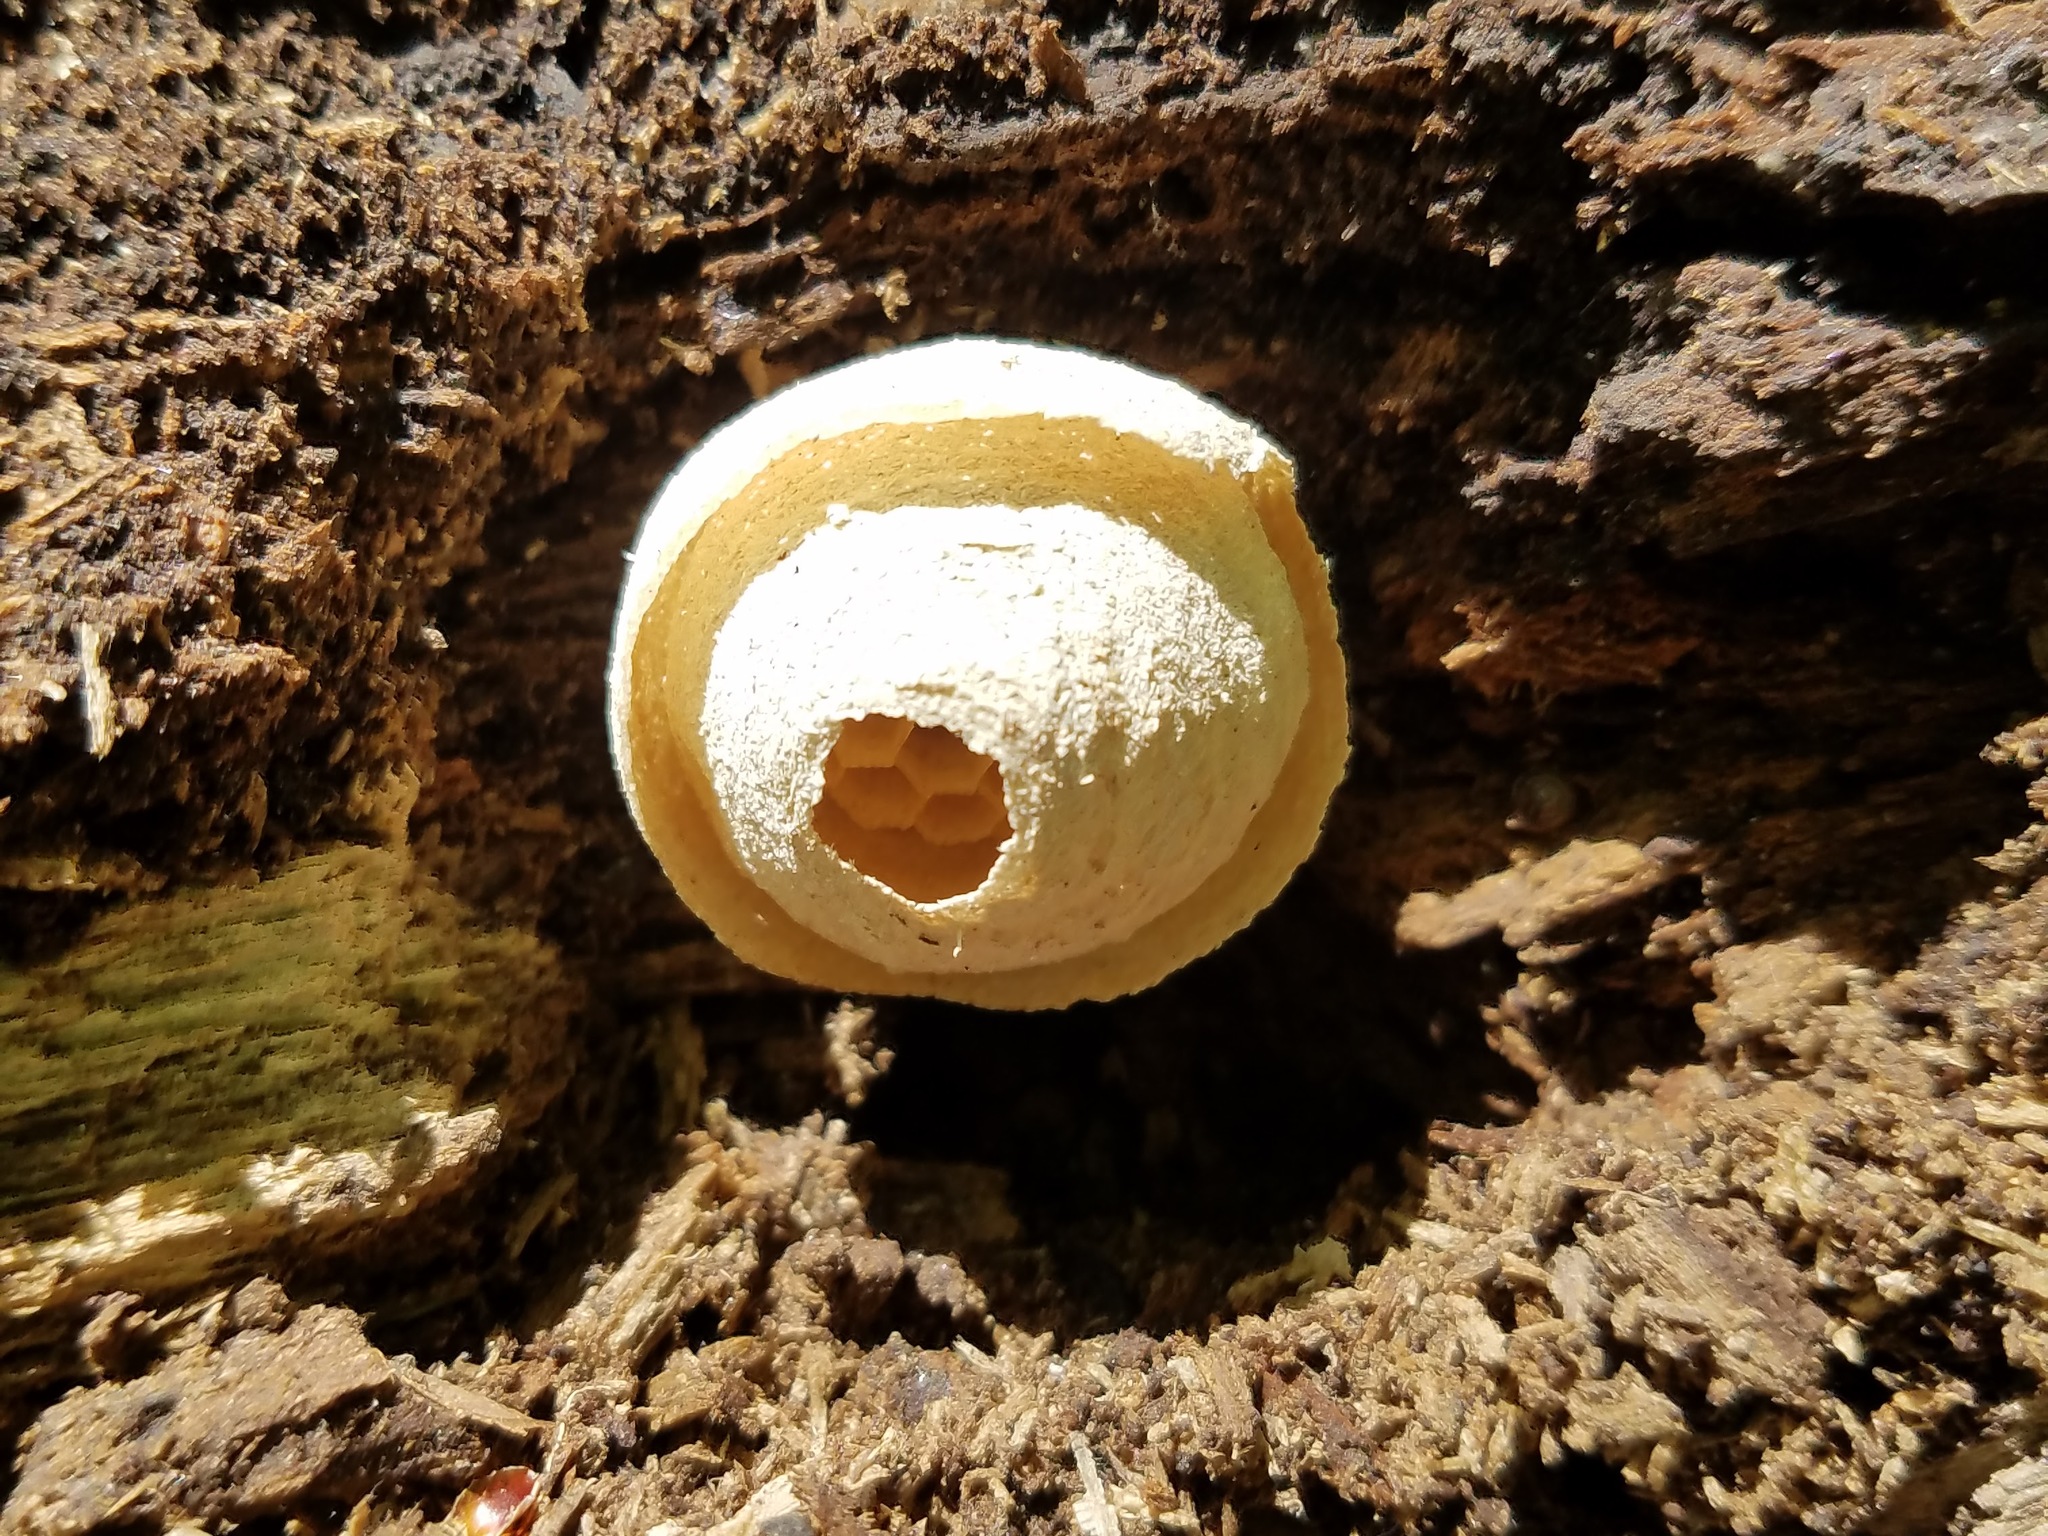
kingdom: Animalia
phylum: Arthropoda
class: Insecta
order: Hymenoptera
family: Vespidae
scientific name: Vespidae
